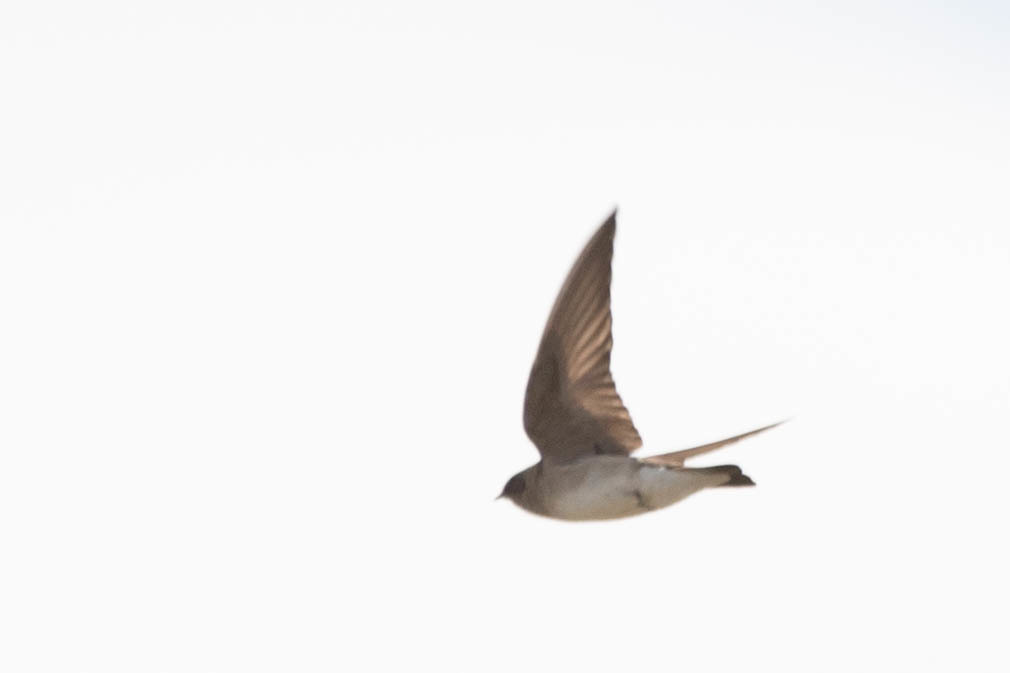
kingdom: Animalia
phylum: Chordata
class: Aves
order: Passeriformes
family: Hirundinidae
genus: Stelgidopteryx
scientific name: Stelgidopteryx serripennis
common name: Northern rough-winged swallow
